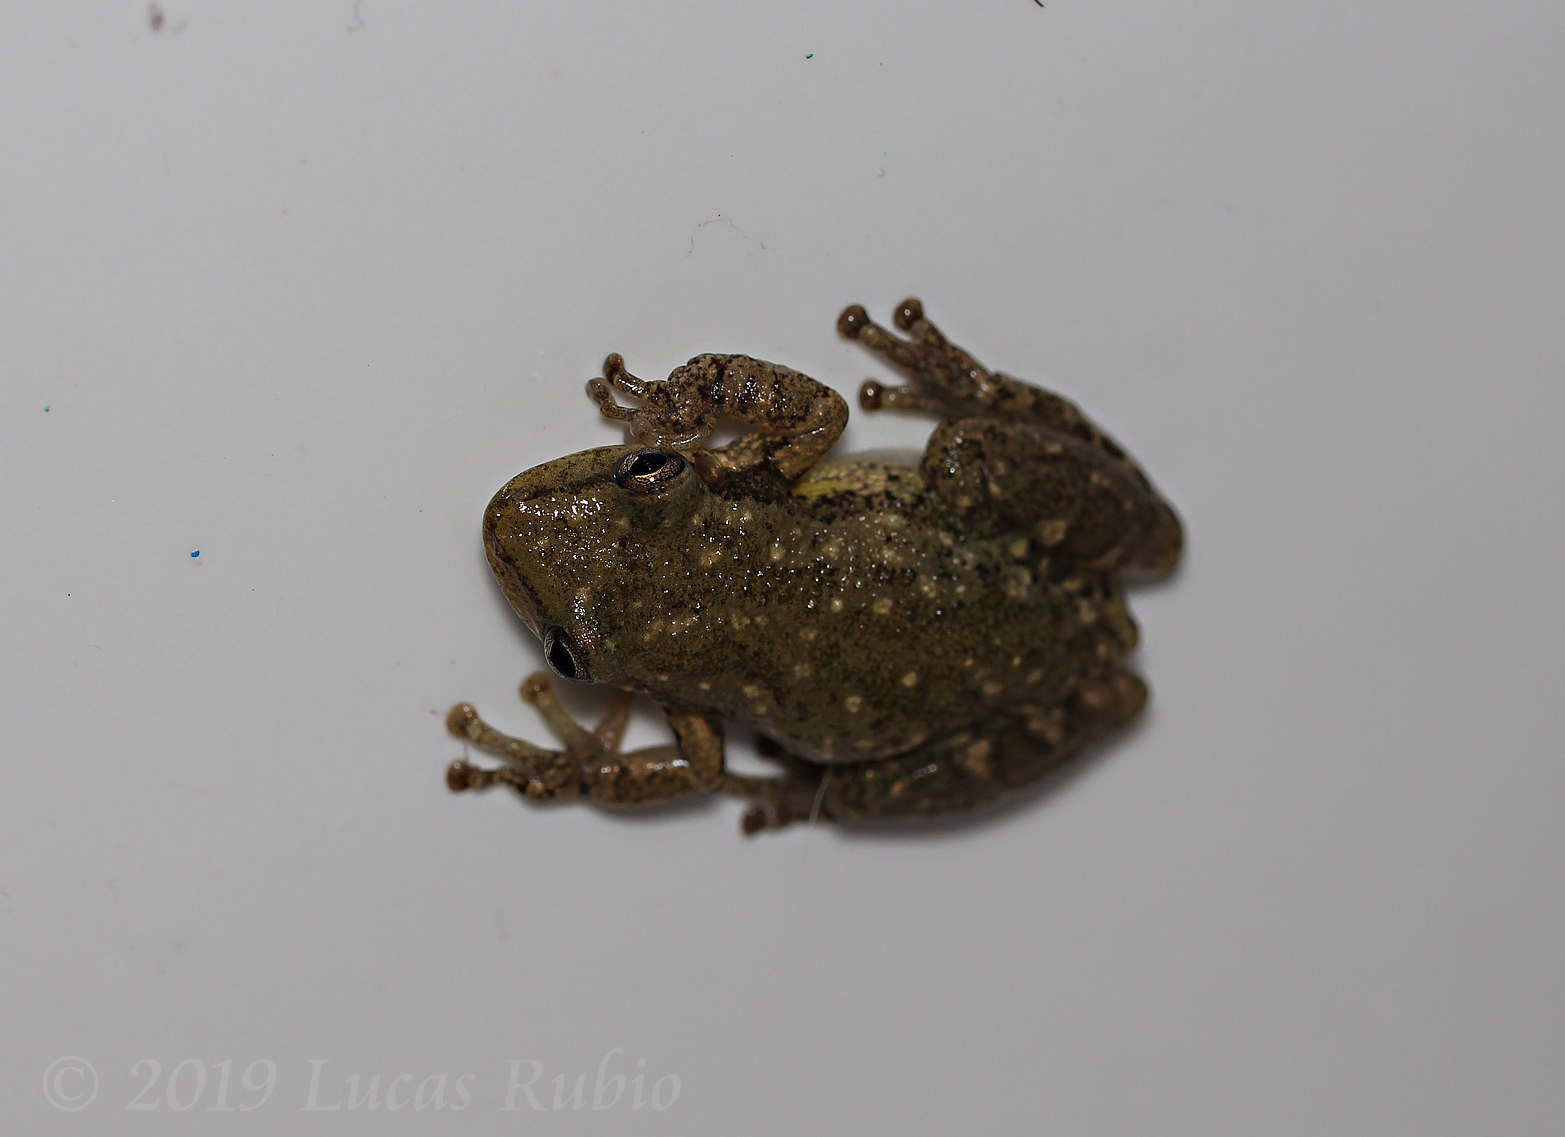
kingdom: Animalia
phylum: Chordata
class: Amphibia
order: Anura
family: Hylidae
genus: Scinax
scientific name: Scinax nasicus
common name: Lesser snouted treefrog
